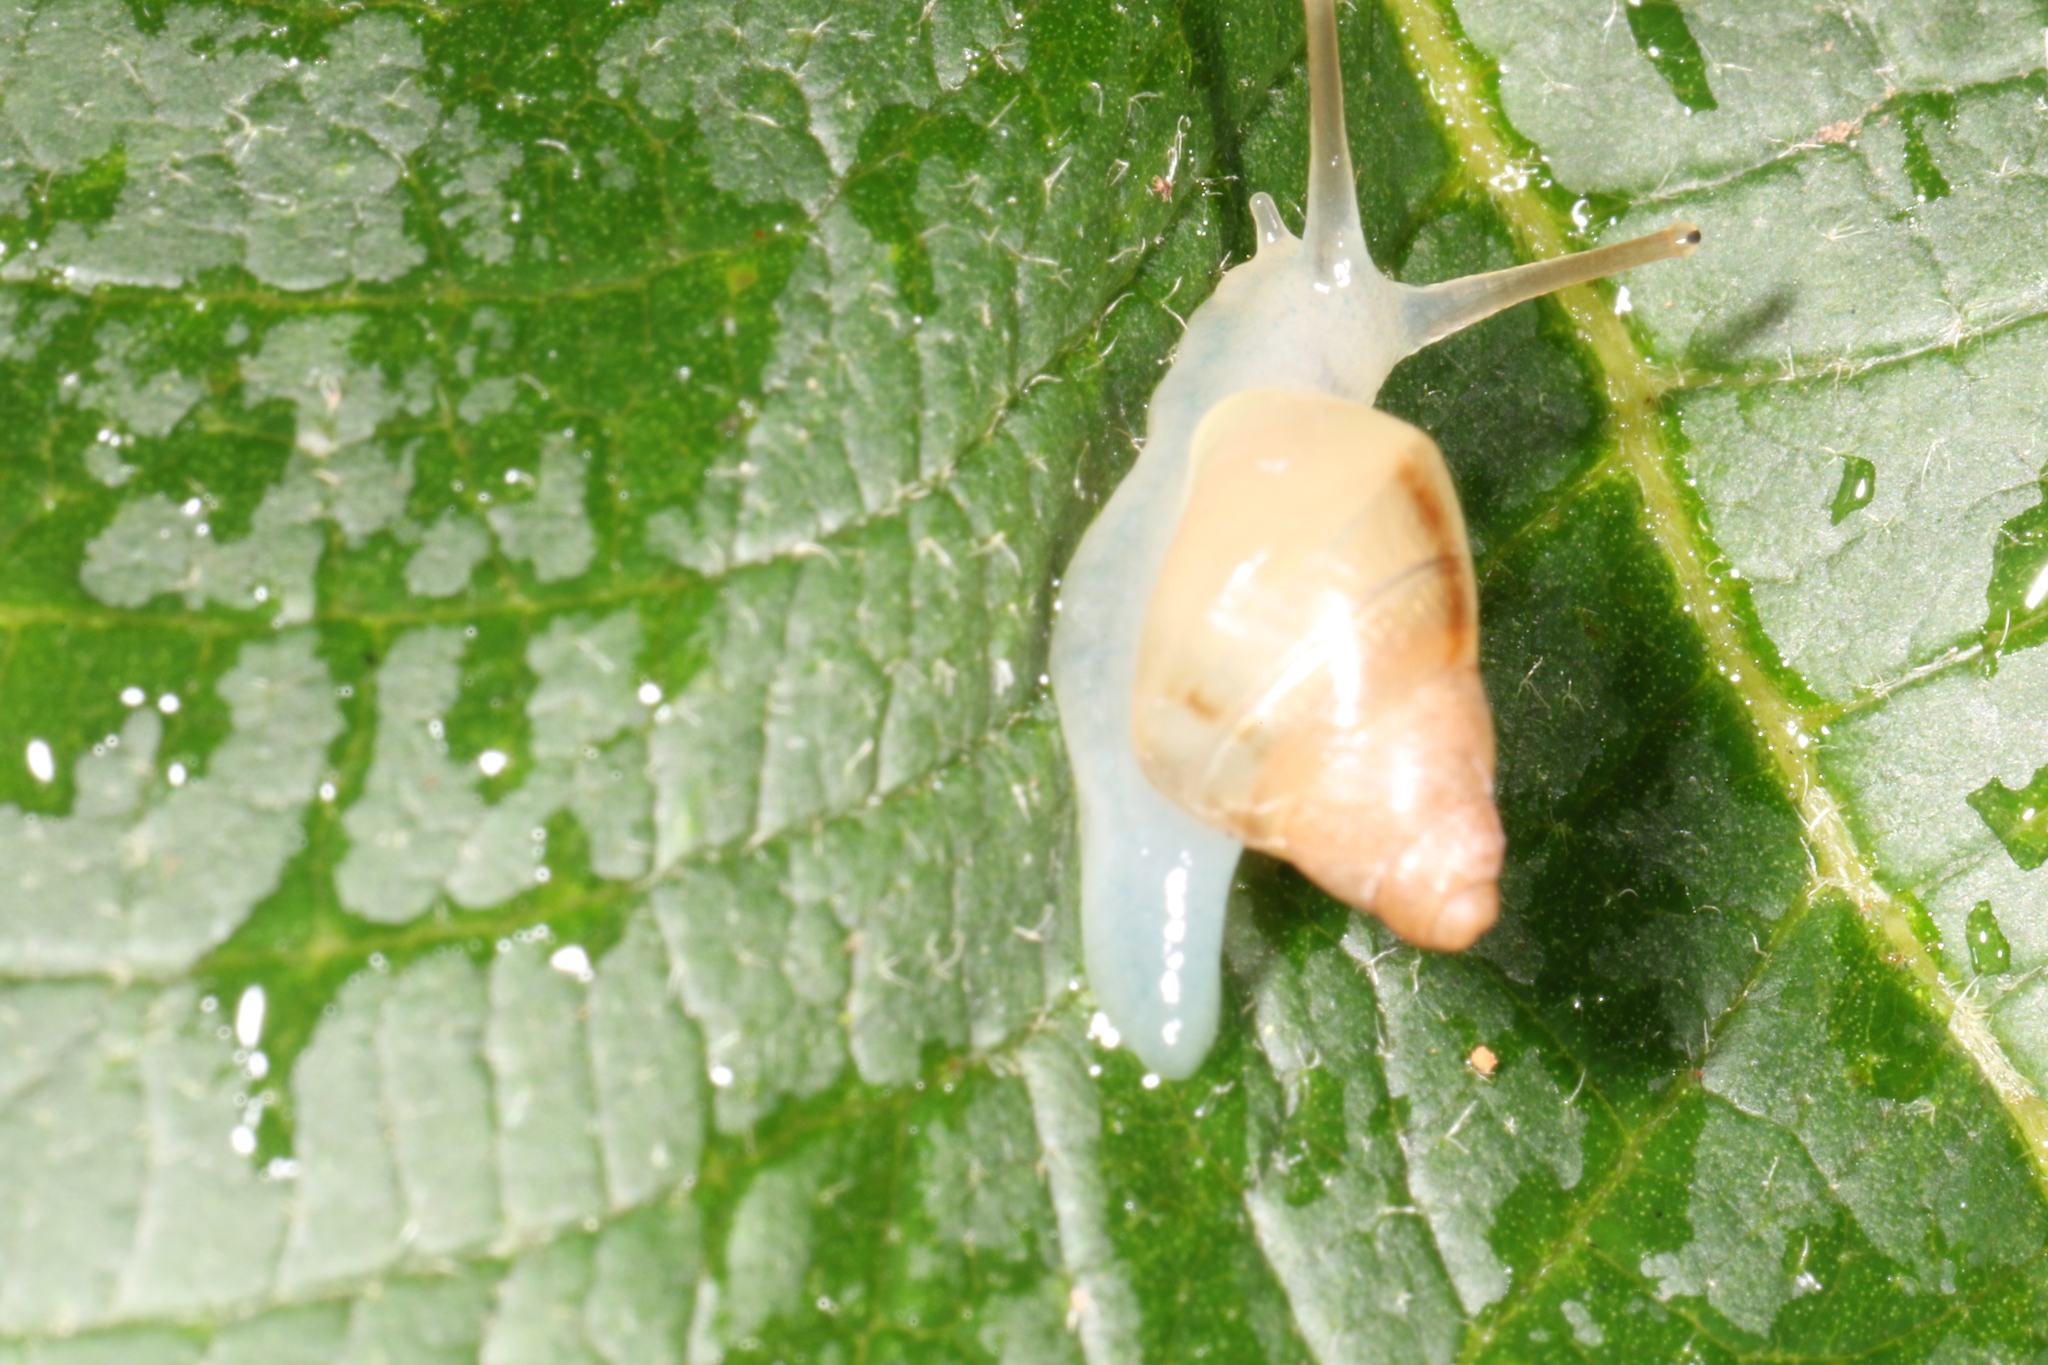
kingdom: Animalia
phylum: Mollusca
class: Gastropoda
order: Stylommatophora
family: Bulimulidae
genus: Drymaeus
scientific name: Drymaeus semistriatus
